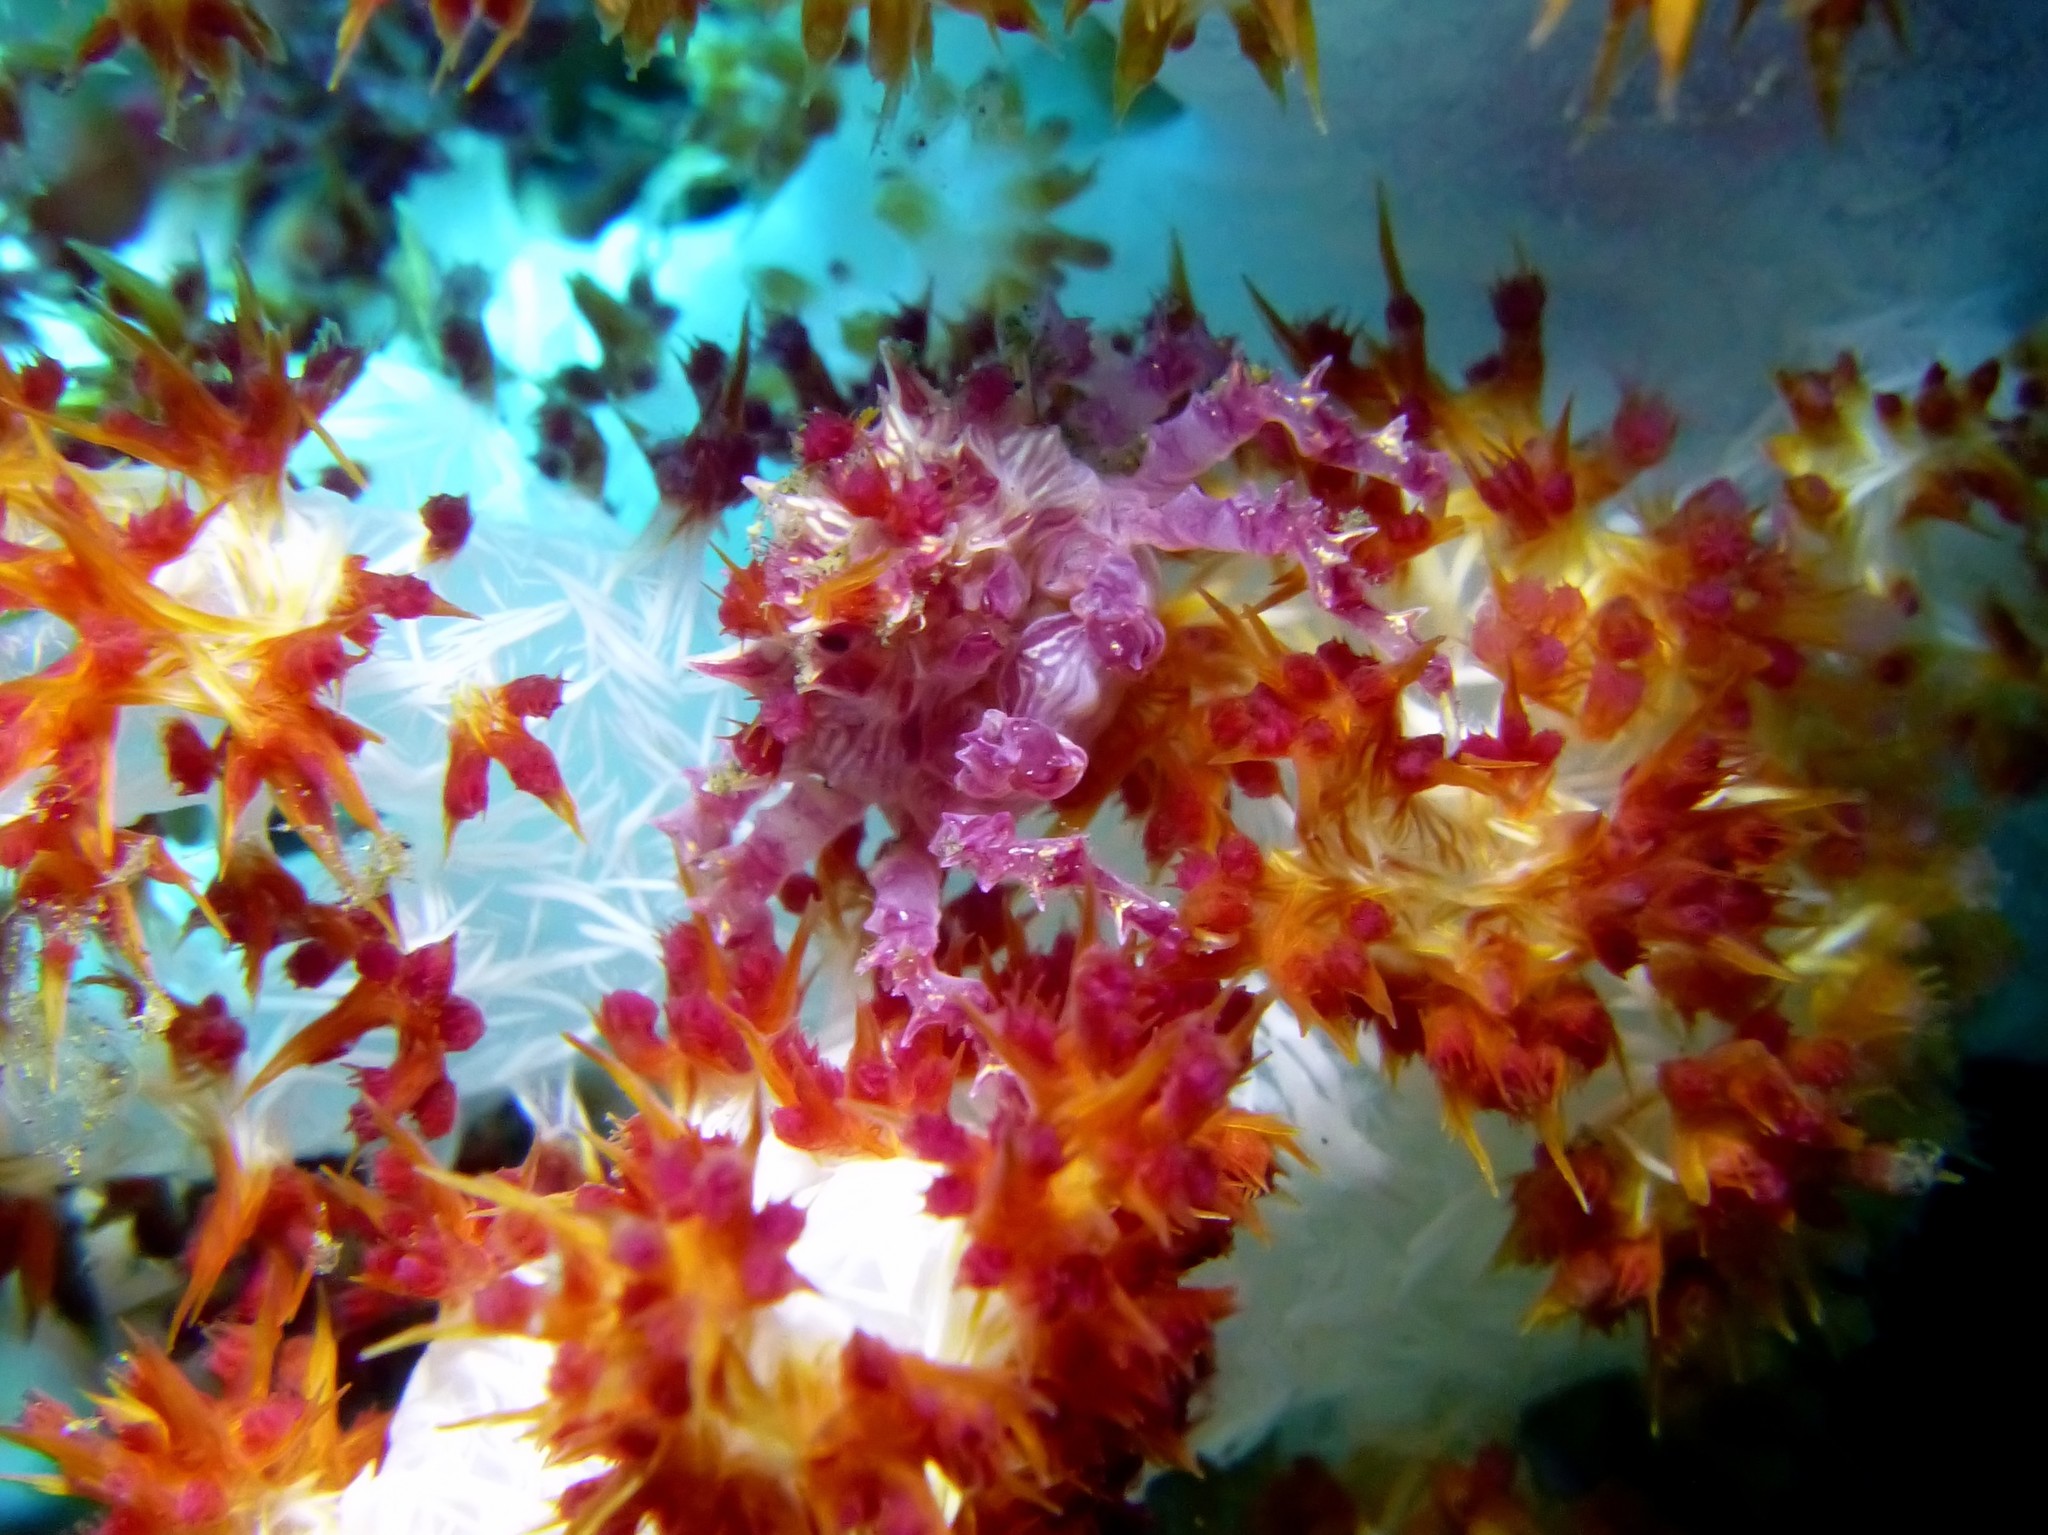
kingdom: Animalia
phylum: Arthropoda
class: Malacostraca
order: Decapoda
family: Epialtidae
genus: Hoplophrys
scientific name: Hoplophrys oatesii
